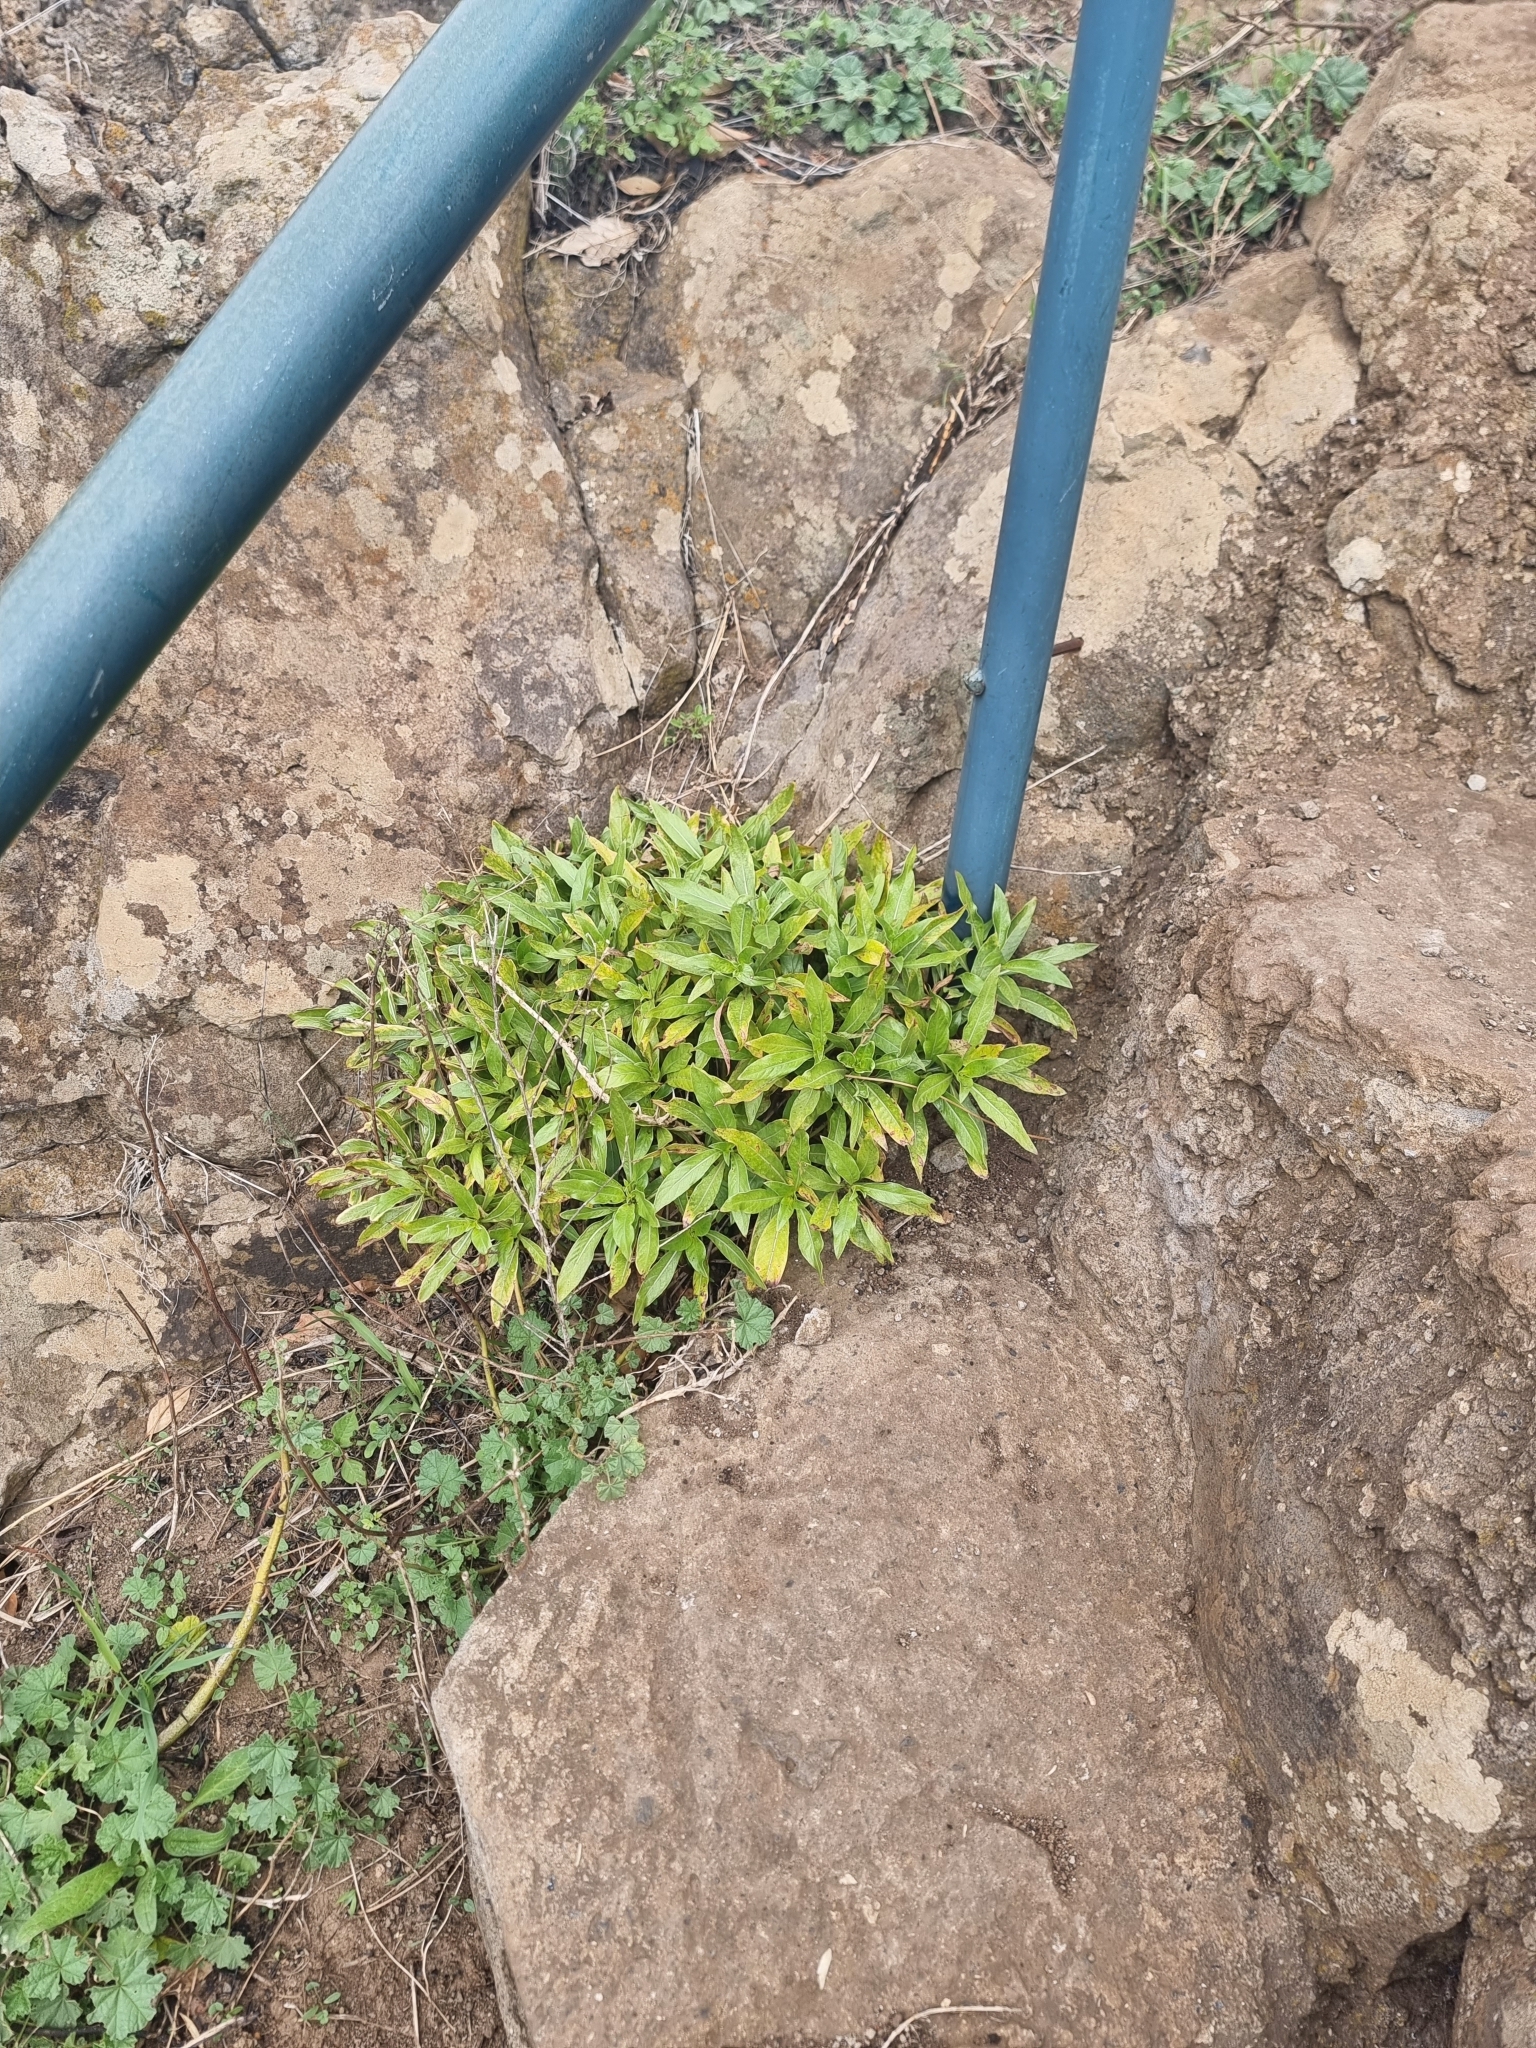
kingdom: Plantae
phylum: Tracheophyta
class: Magnoliopsida
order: Gentianales
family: Rubiaceae
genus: Phyllis
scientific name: Phyllis nobla
